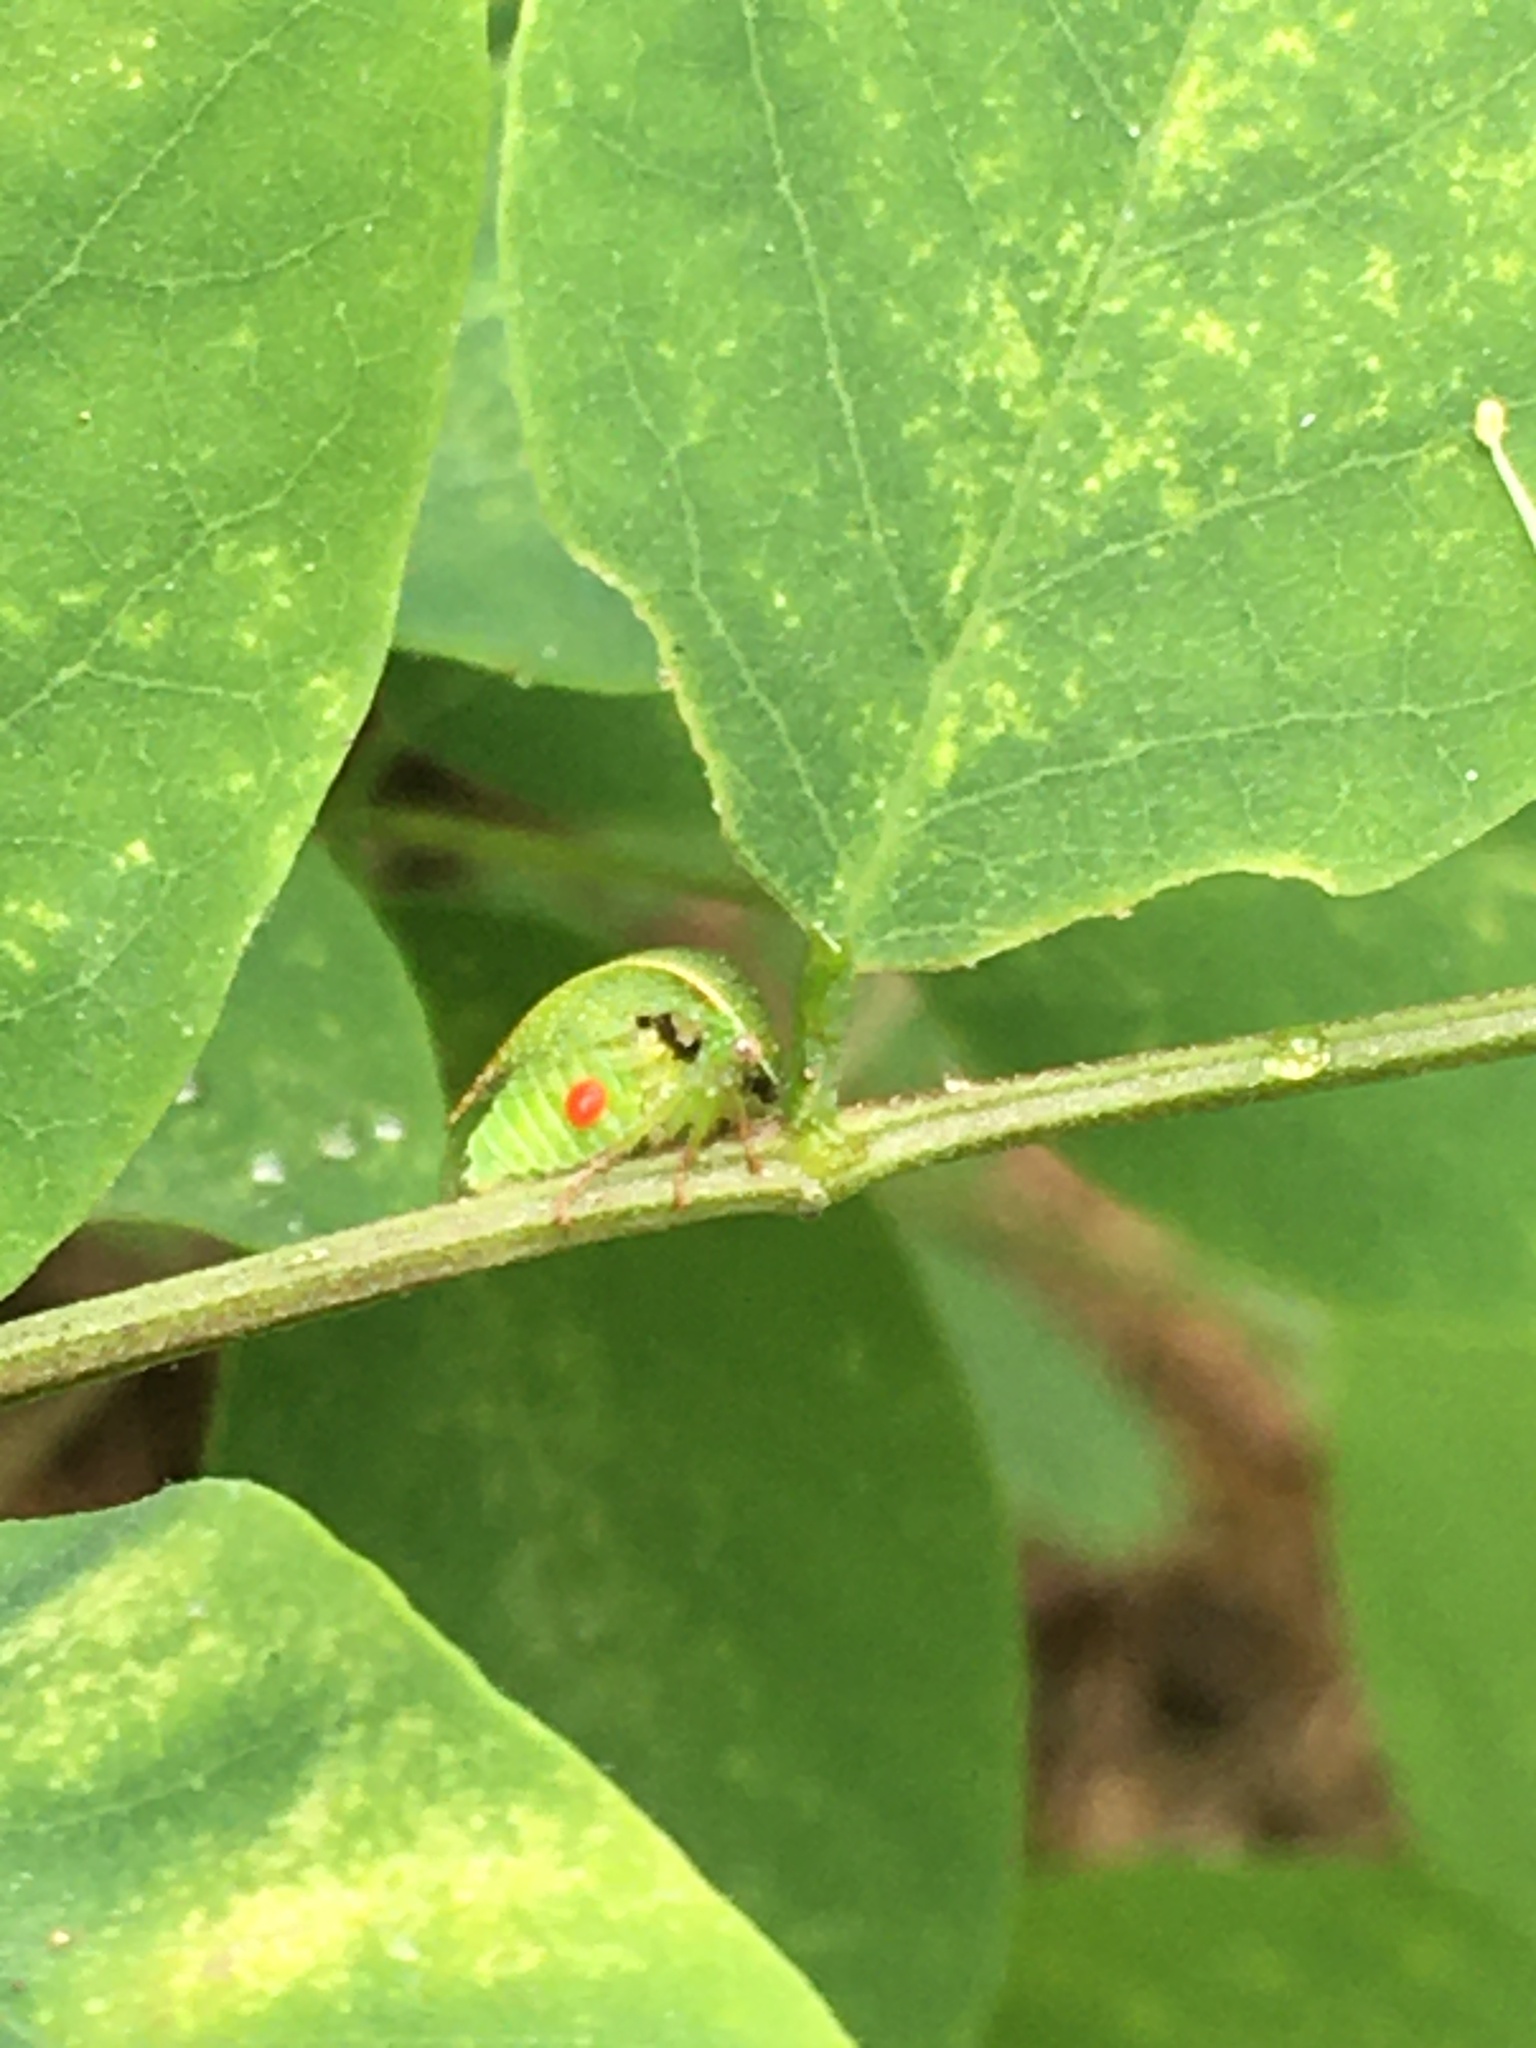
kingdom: Animalia
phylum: Arthropoda
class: Insecta
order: Hemiptera
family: Membracidae
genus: Spissistilus
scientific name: Spissistilus festina
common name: Membracid bug
